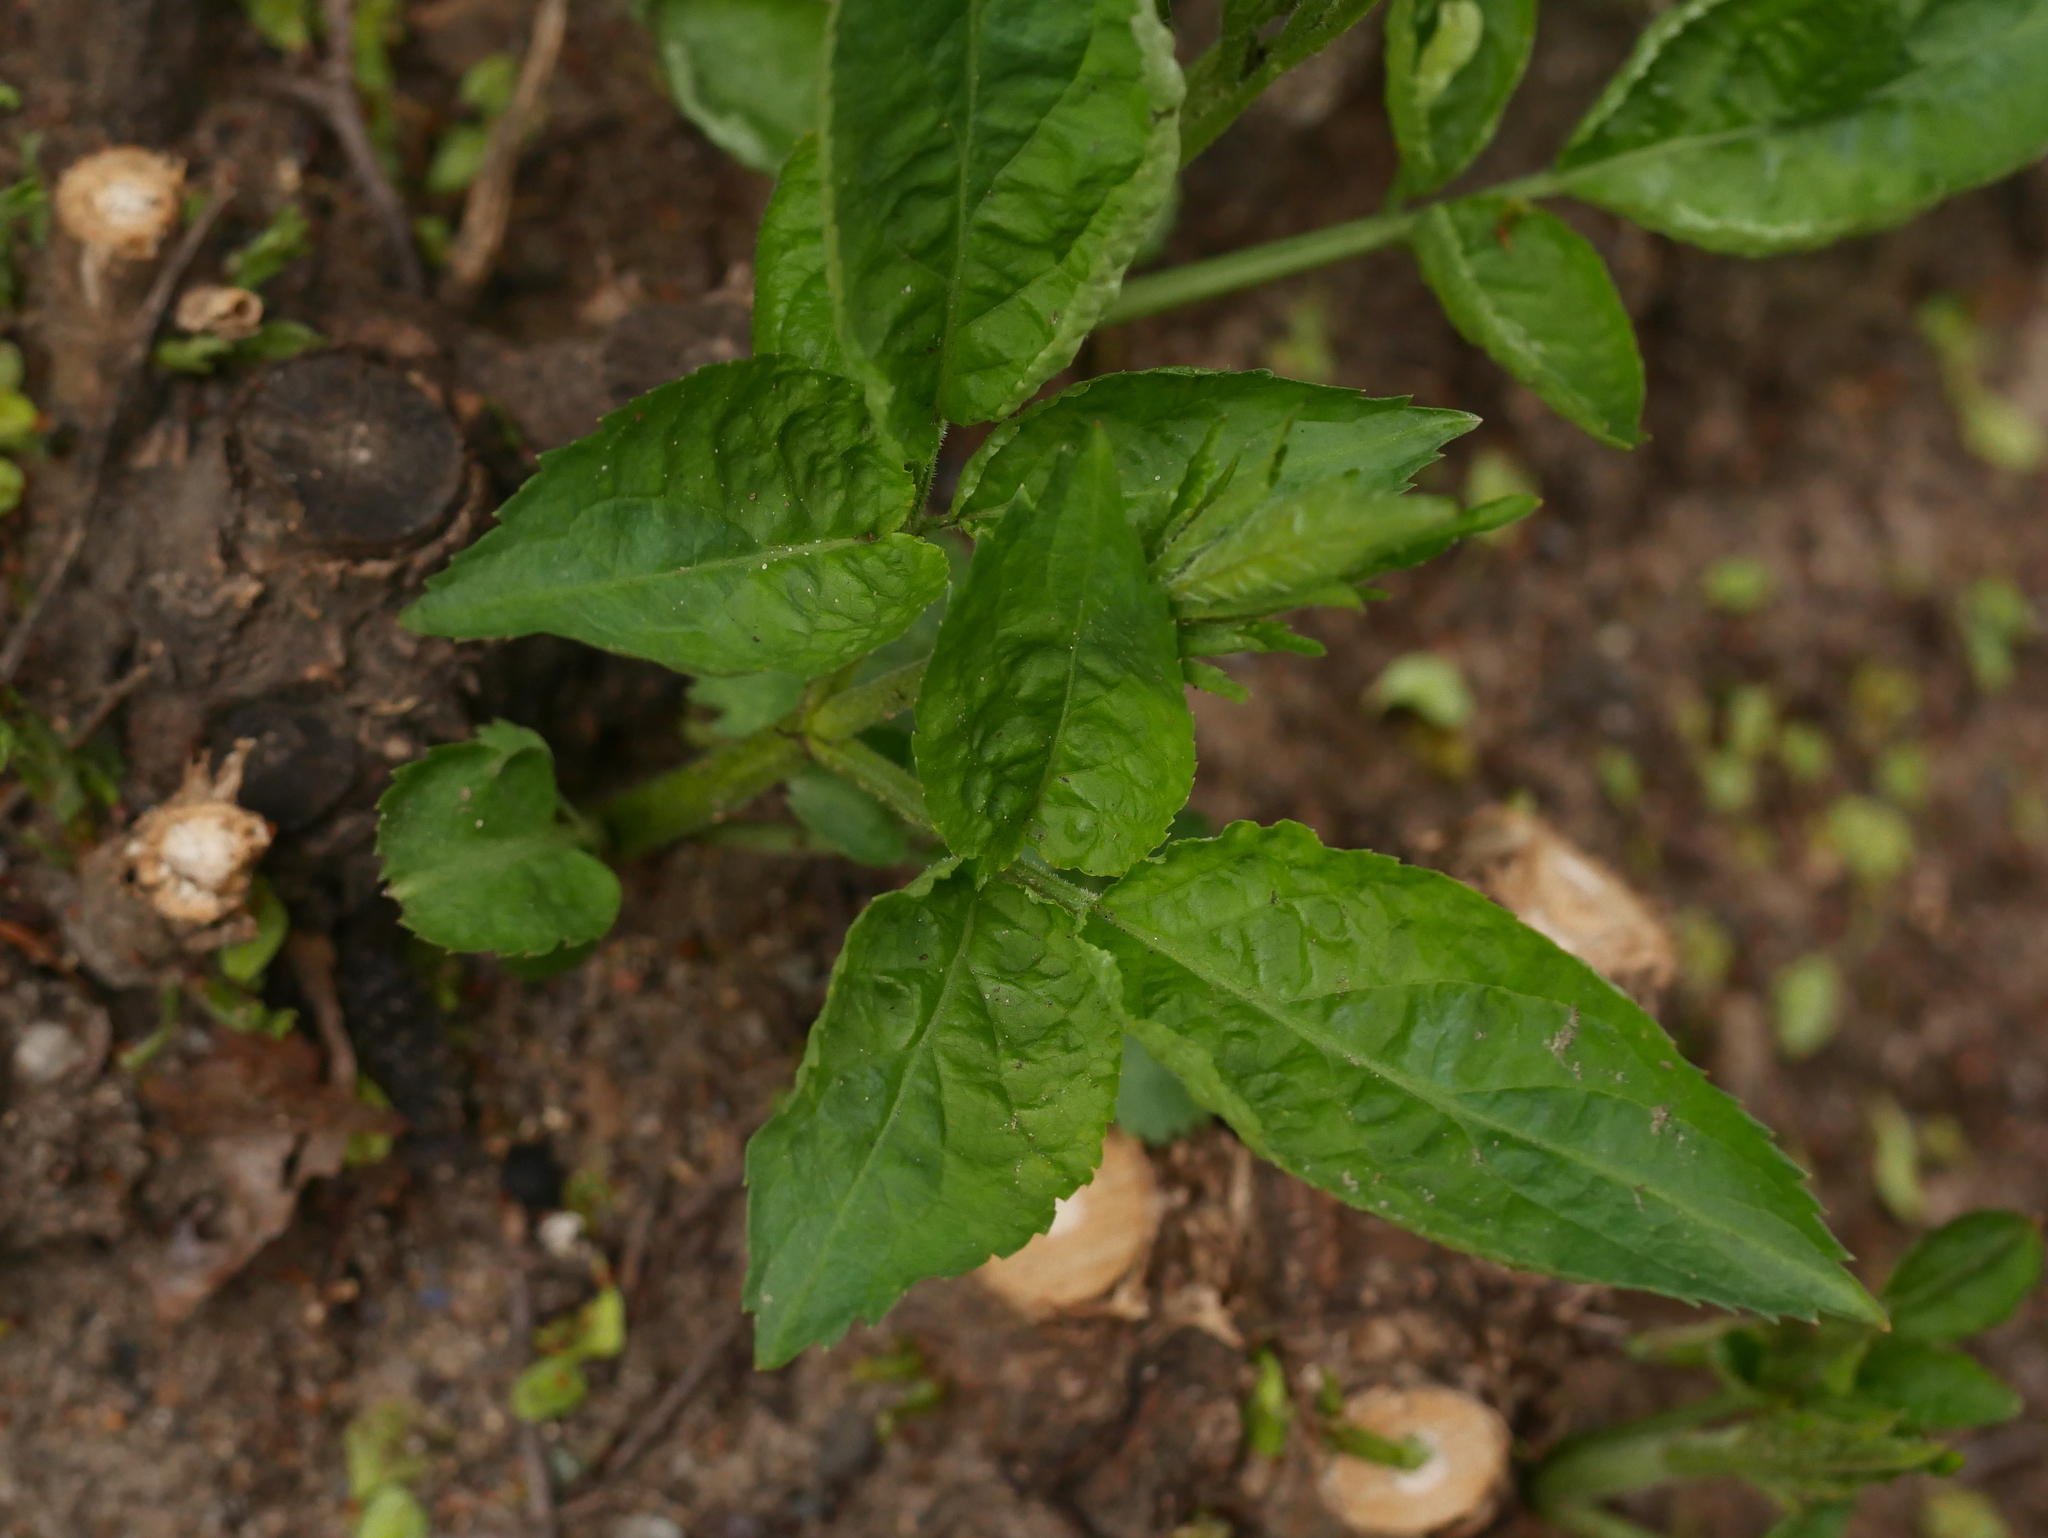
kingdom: Plantae
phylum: Tracheophyta
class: Magnoliopsida
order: Dipsacales
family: Viburnaceae
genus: Sambucus
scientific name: Sambucus nigra
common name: Elder
